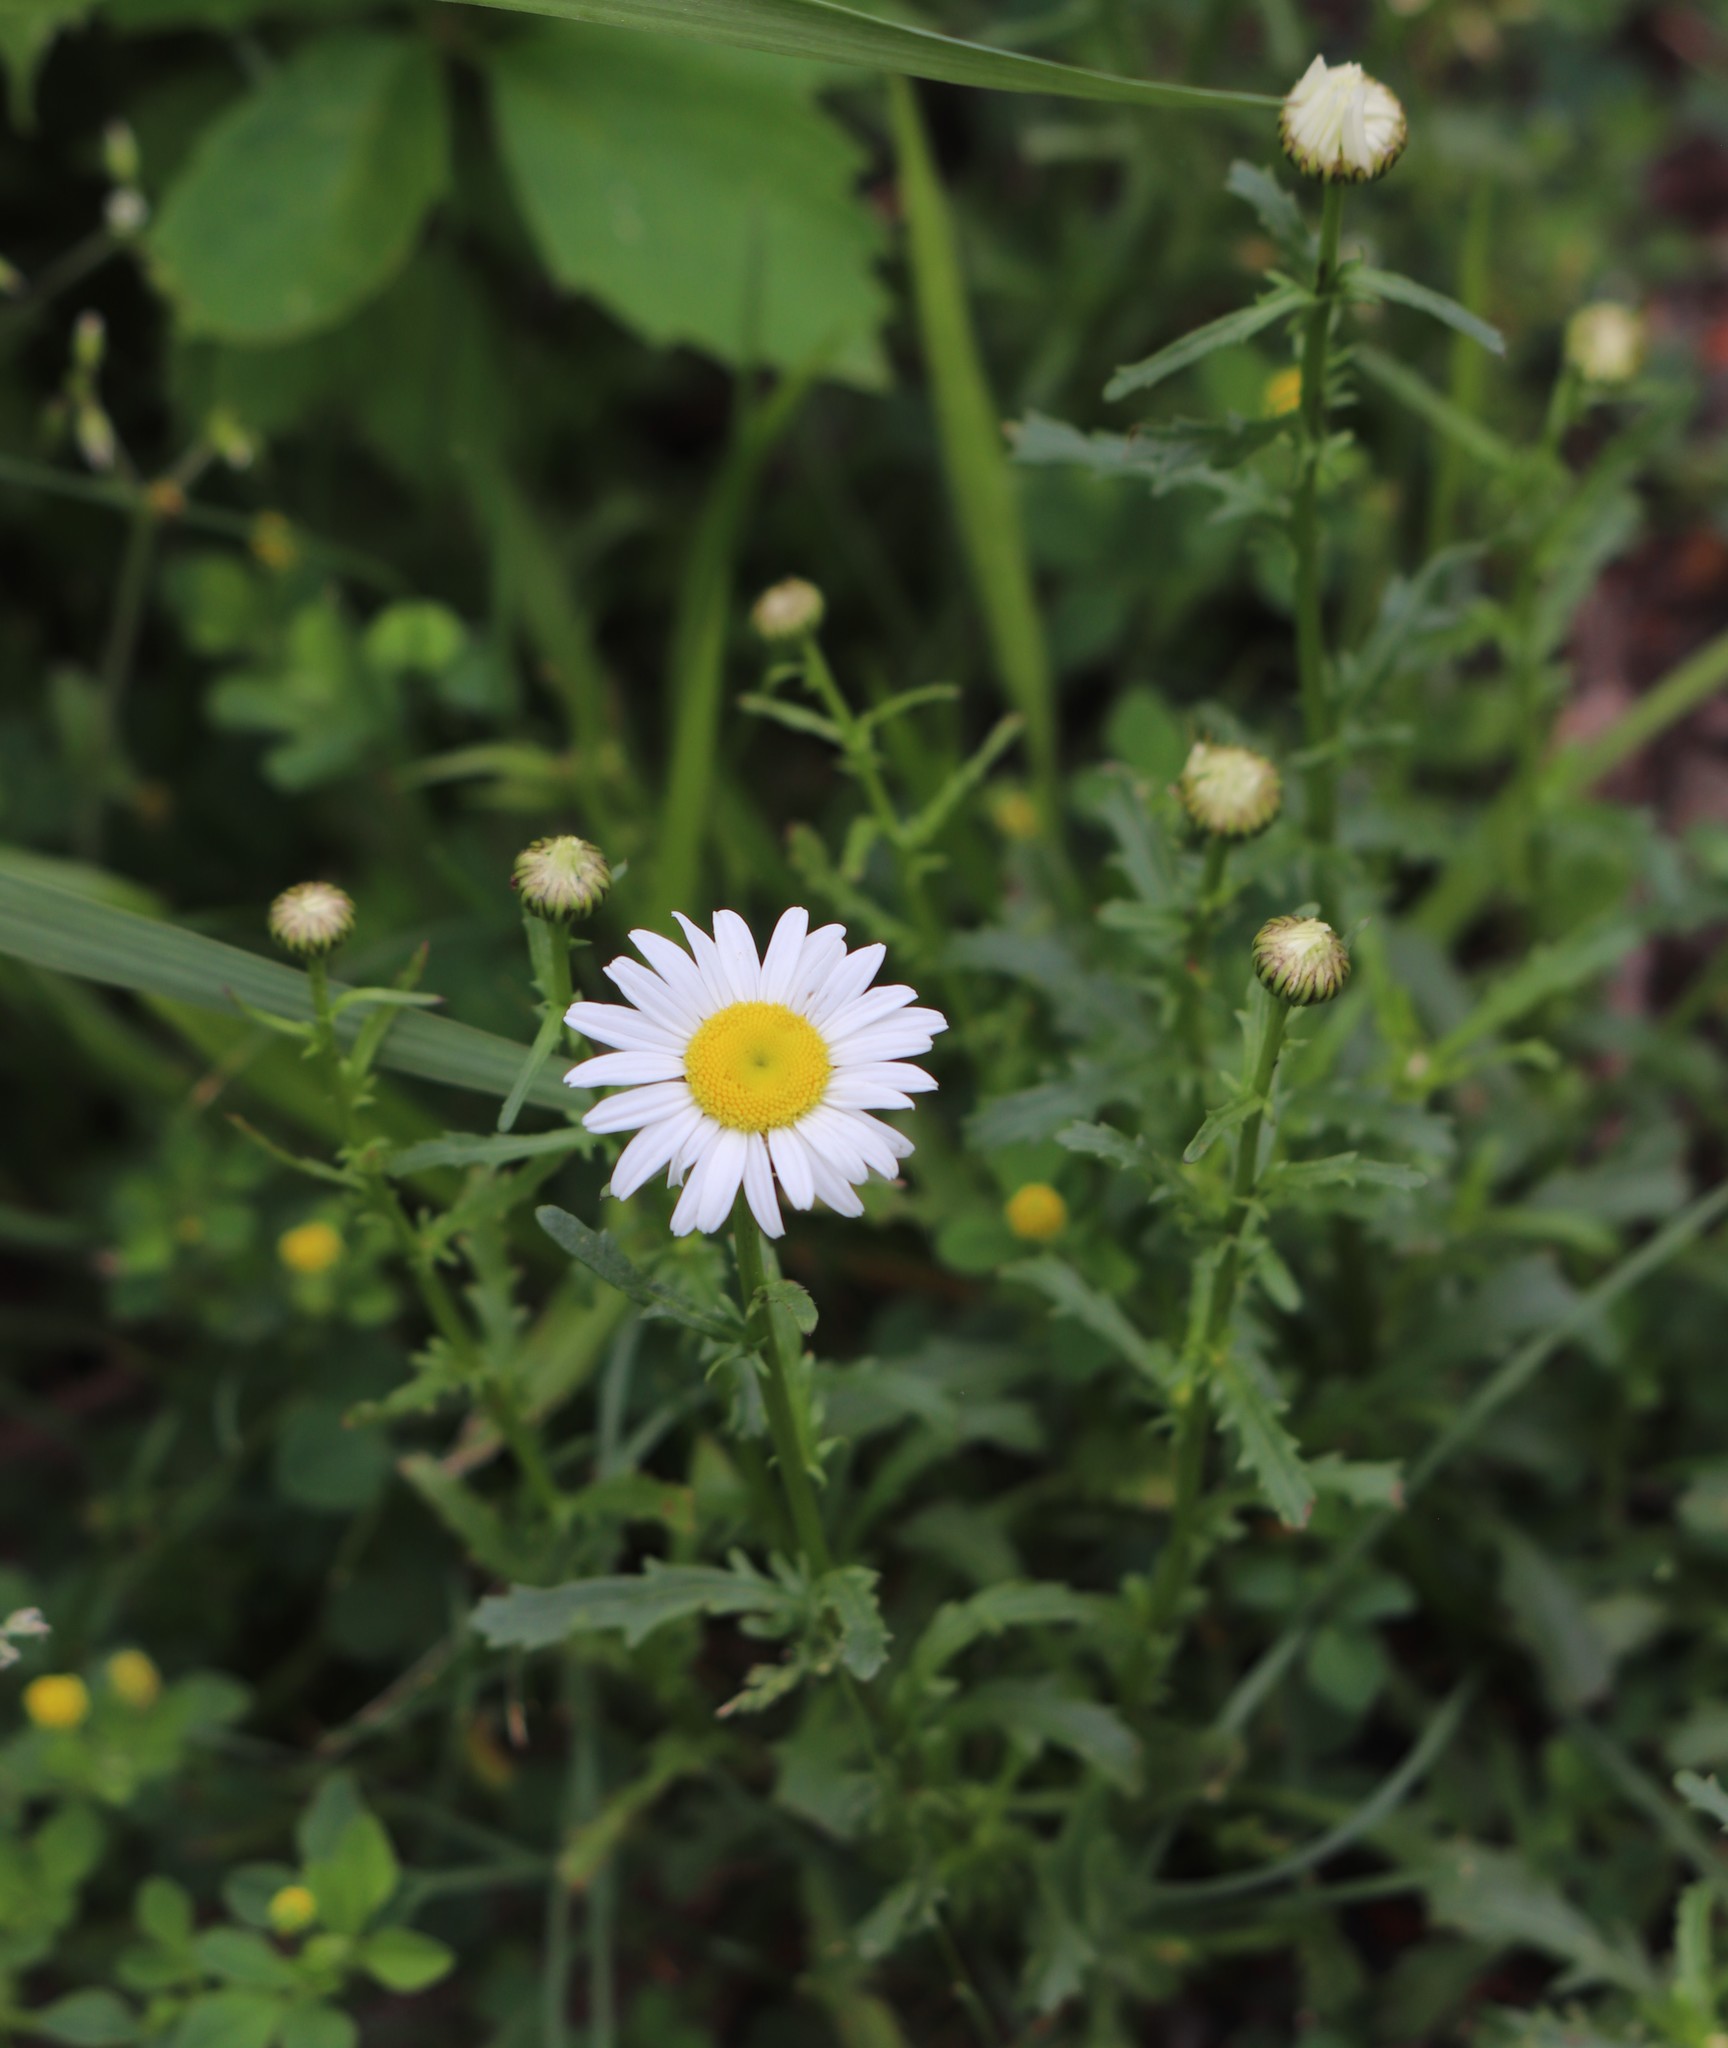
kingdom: Plantae
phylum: Tracheophyta
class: Magnoliopsida
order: Asterales
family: Asteraceae
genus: Leucanthemum
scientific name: Leucanthemum vulgare
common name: Oxeye daisy
